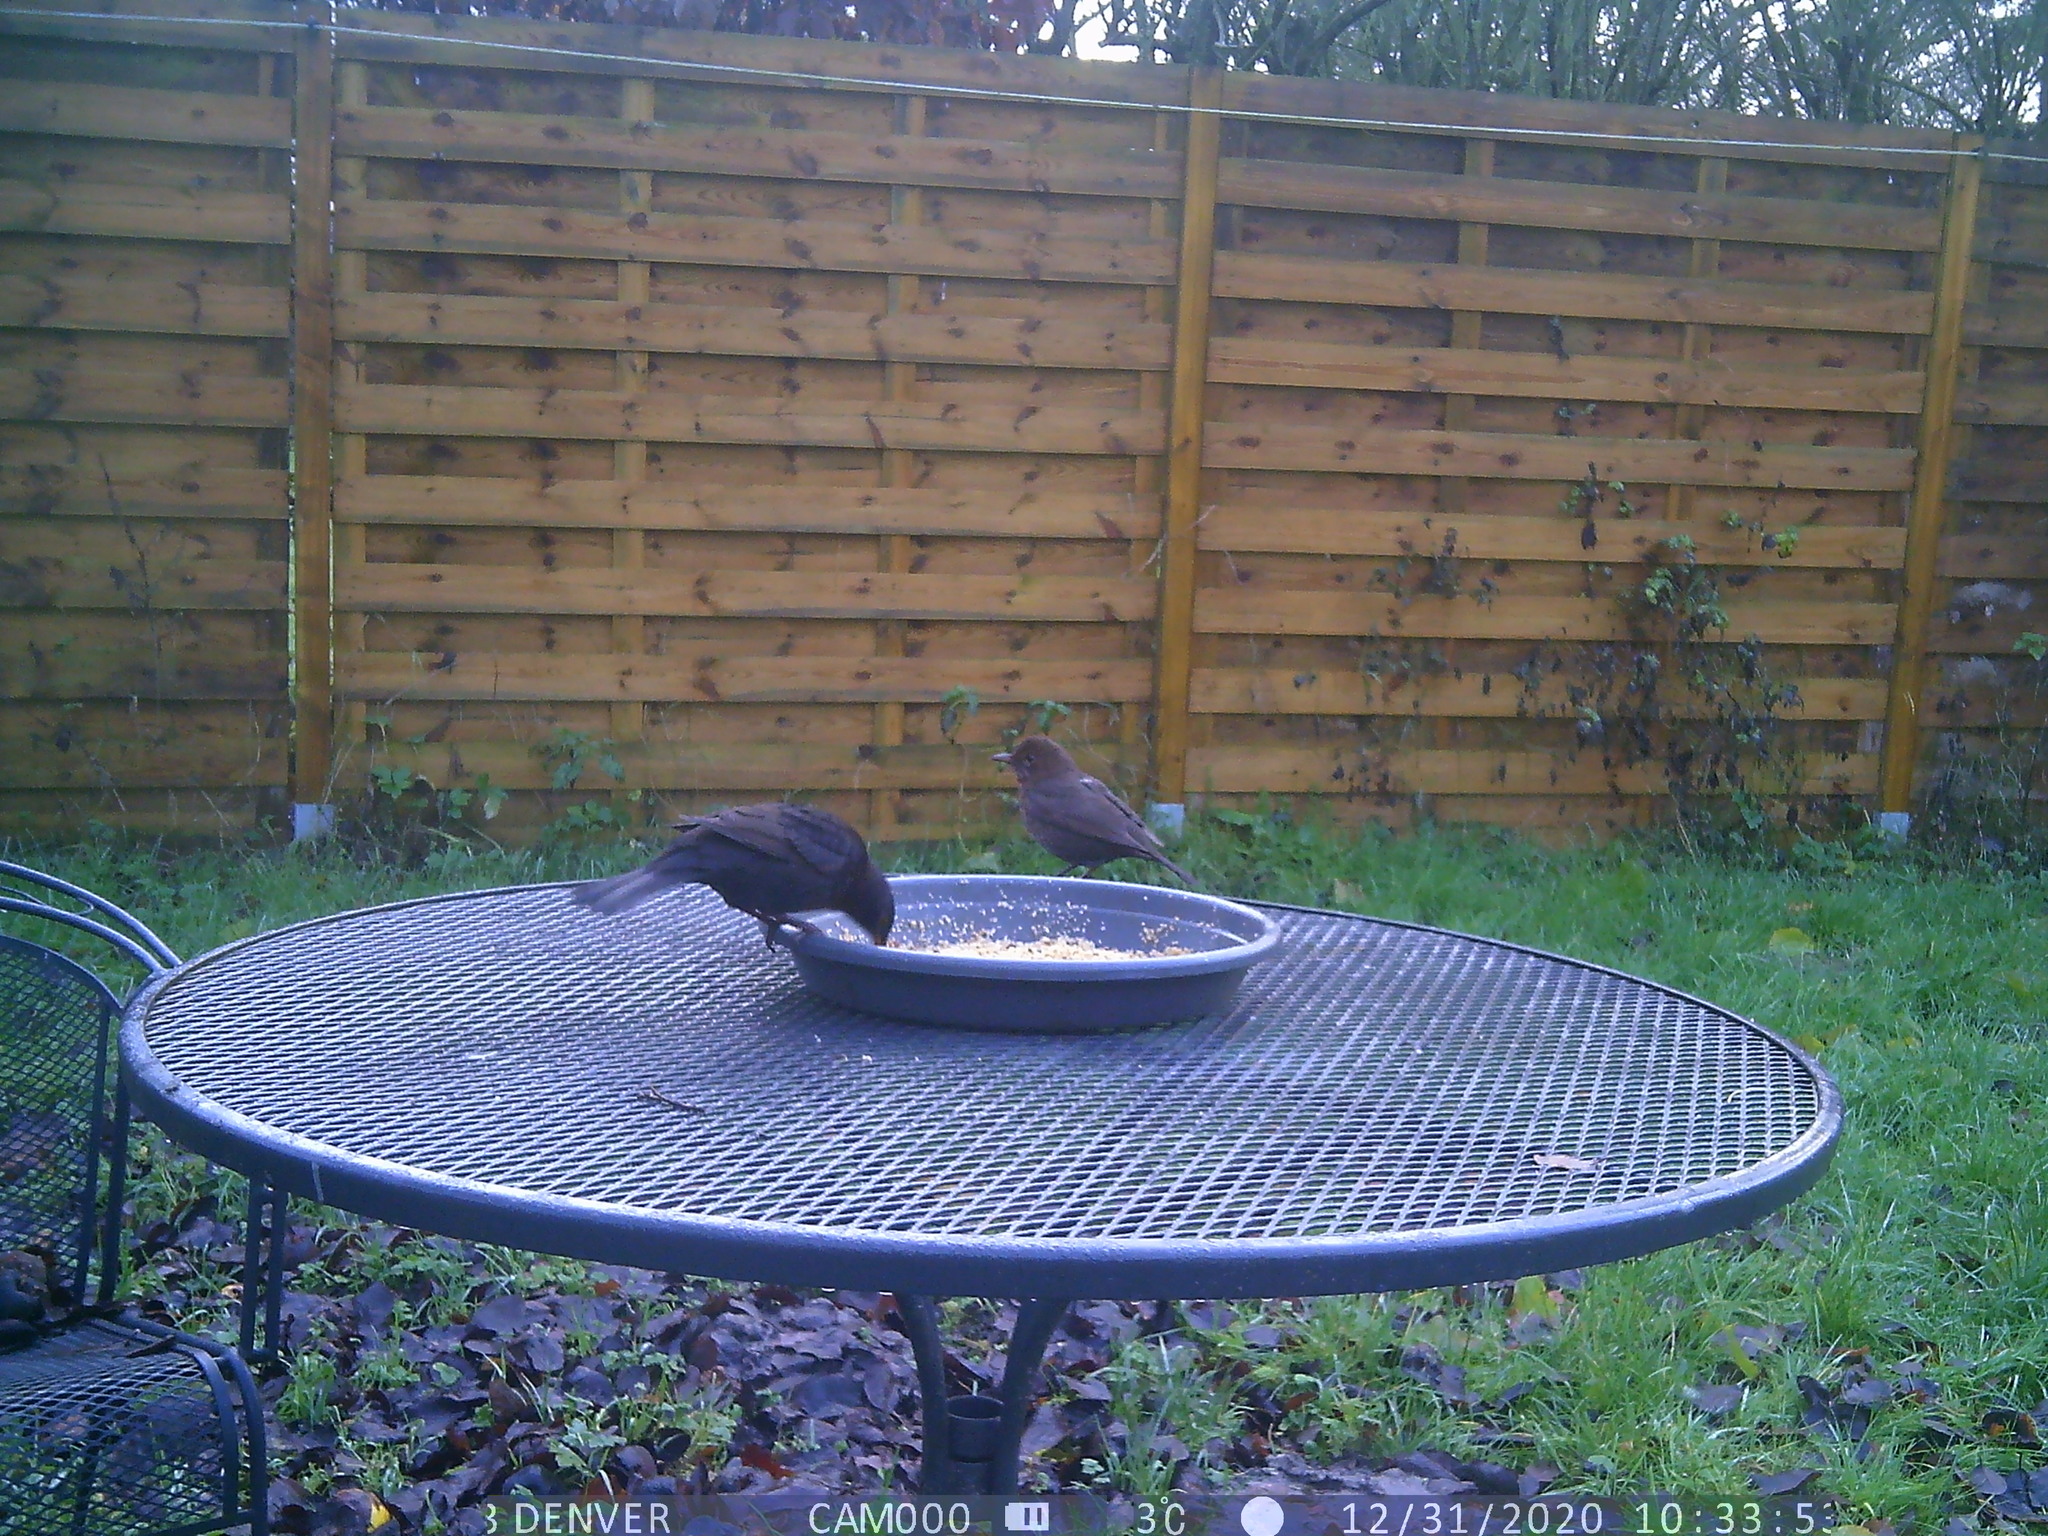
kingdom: Animalia
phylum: Chordata
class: Aves
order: Passeriformes
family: Turdidae
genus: Turdus
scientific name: Turdus merula
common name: Common blackbird
